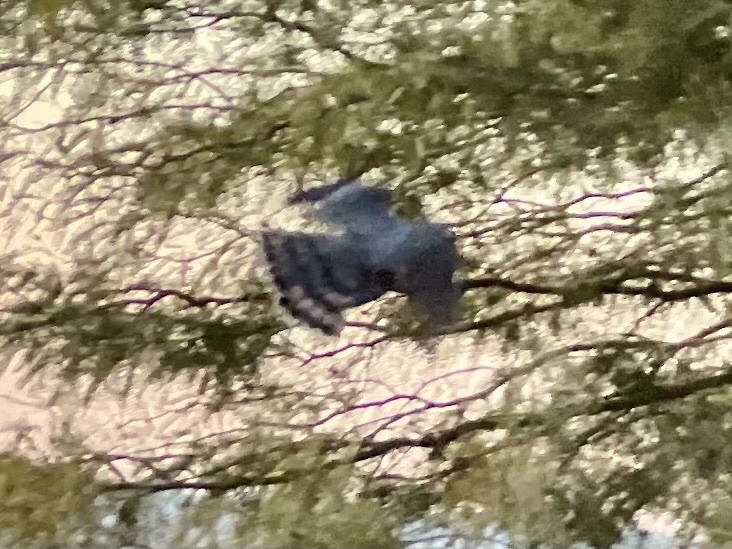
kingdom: Animalia
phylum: Chordata
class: Aves
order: Accipitriformes
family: Accipitridae
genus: Accipiter
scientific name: Accipiter cooperii
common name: Cooper's hawk
